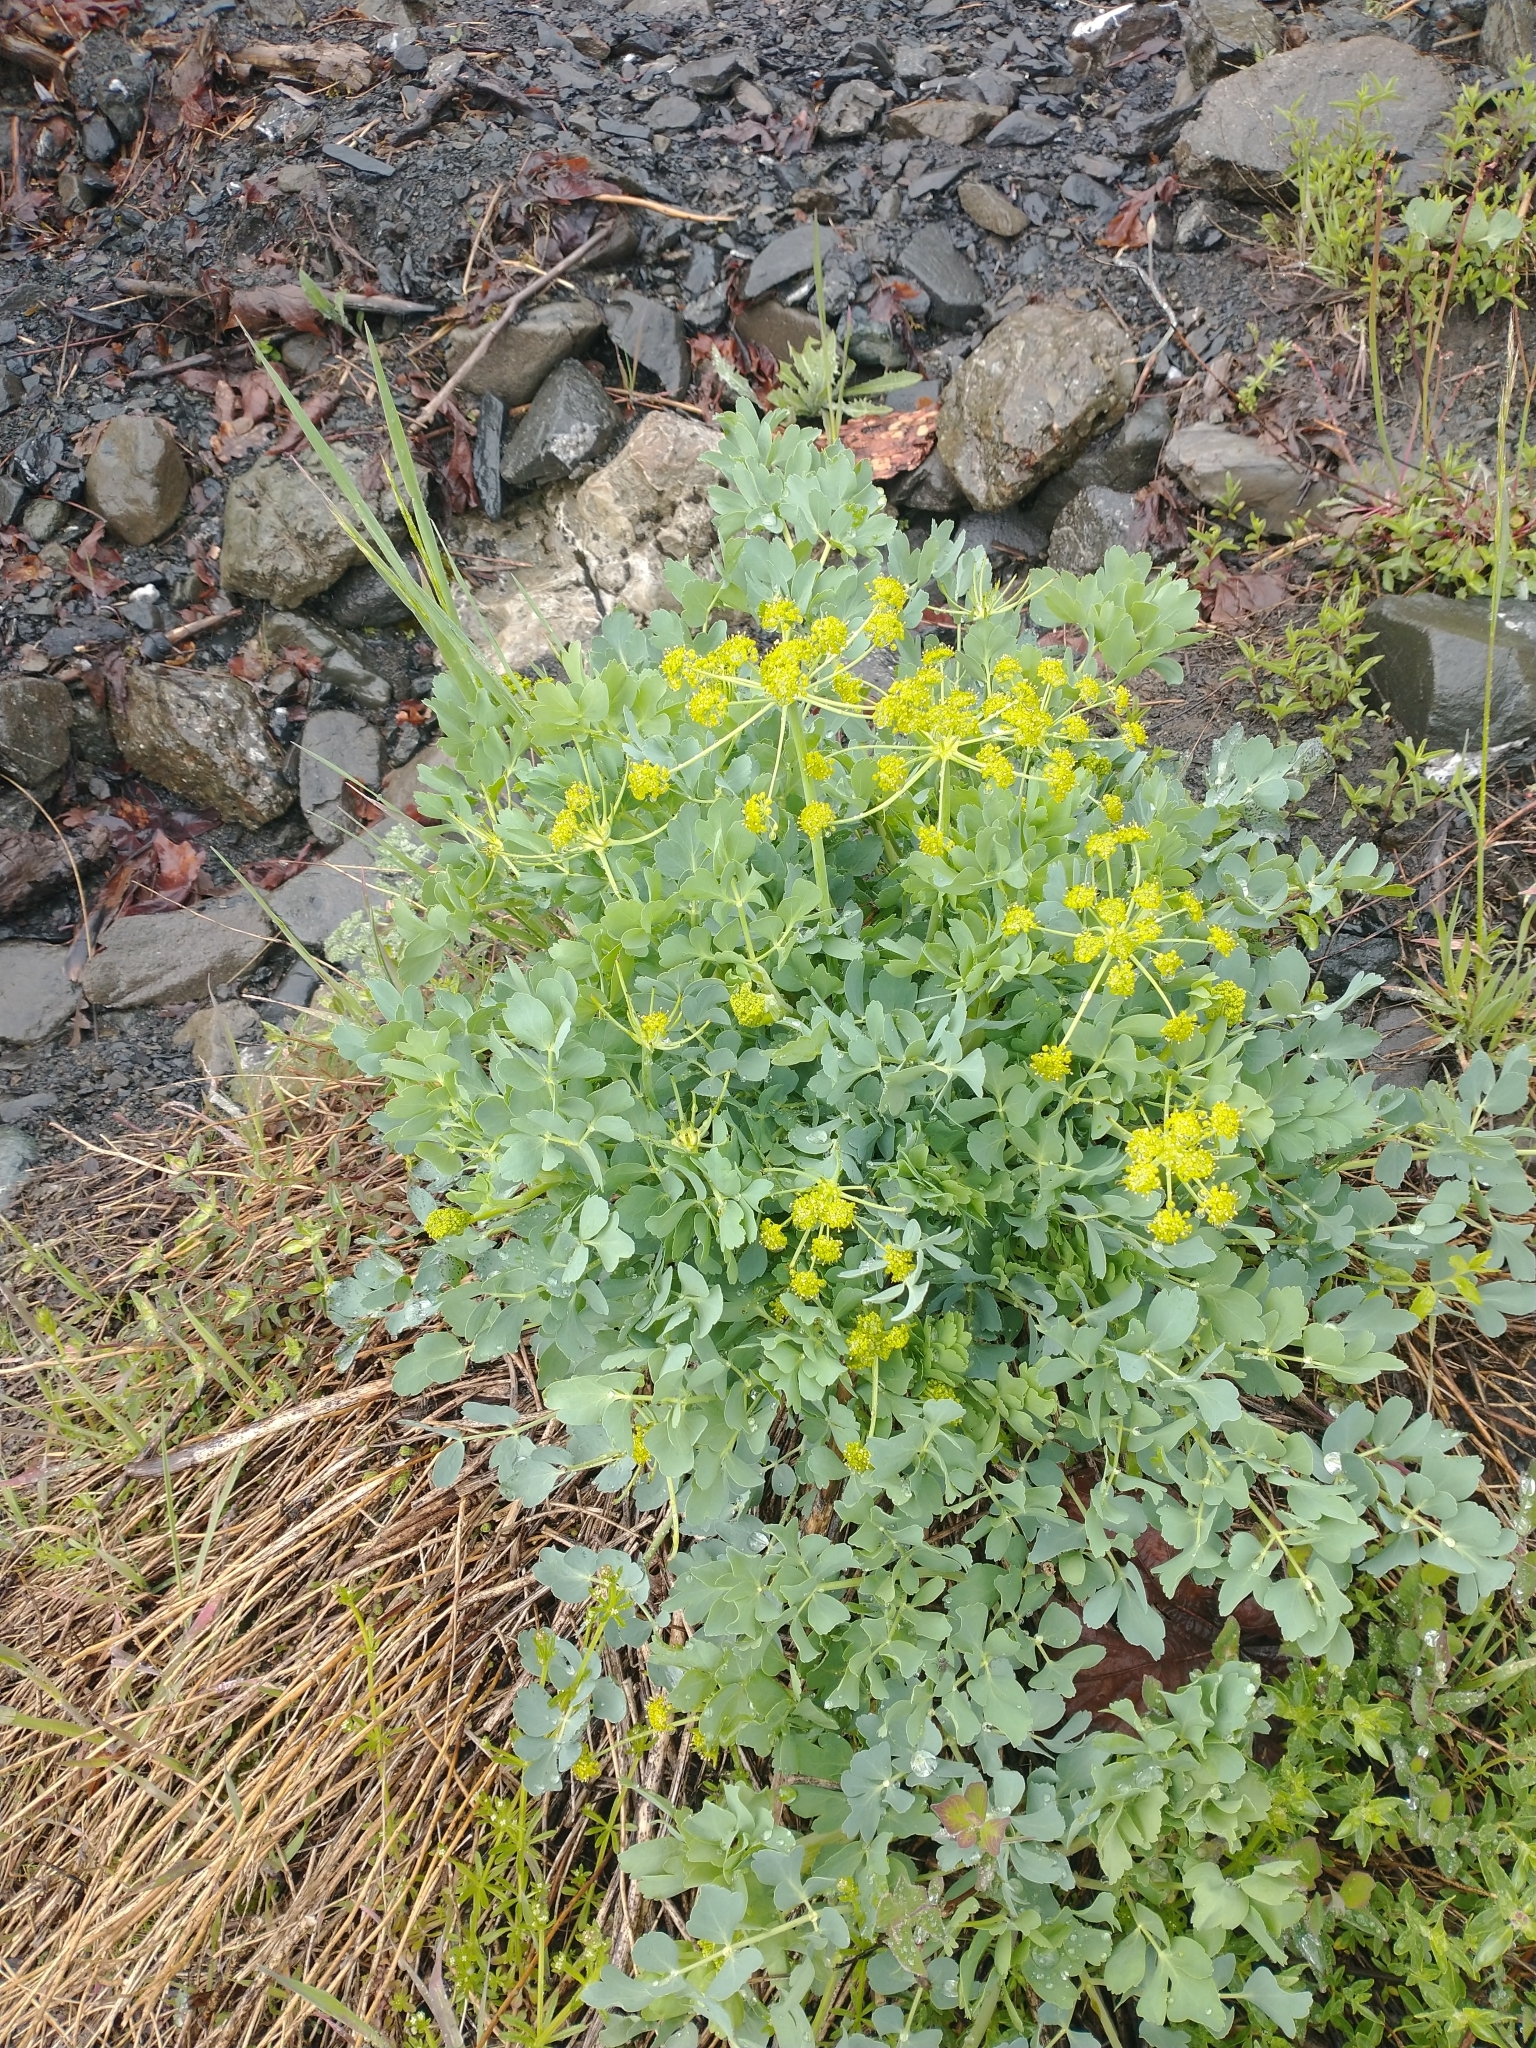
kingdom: Plantae
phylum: Tracheophyta
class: Magnoliopsida
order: Apiales
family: Apiaceae
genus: Lomatium
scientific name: Lomatium californicum
